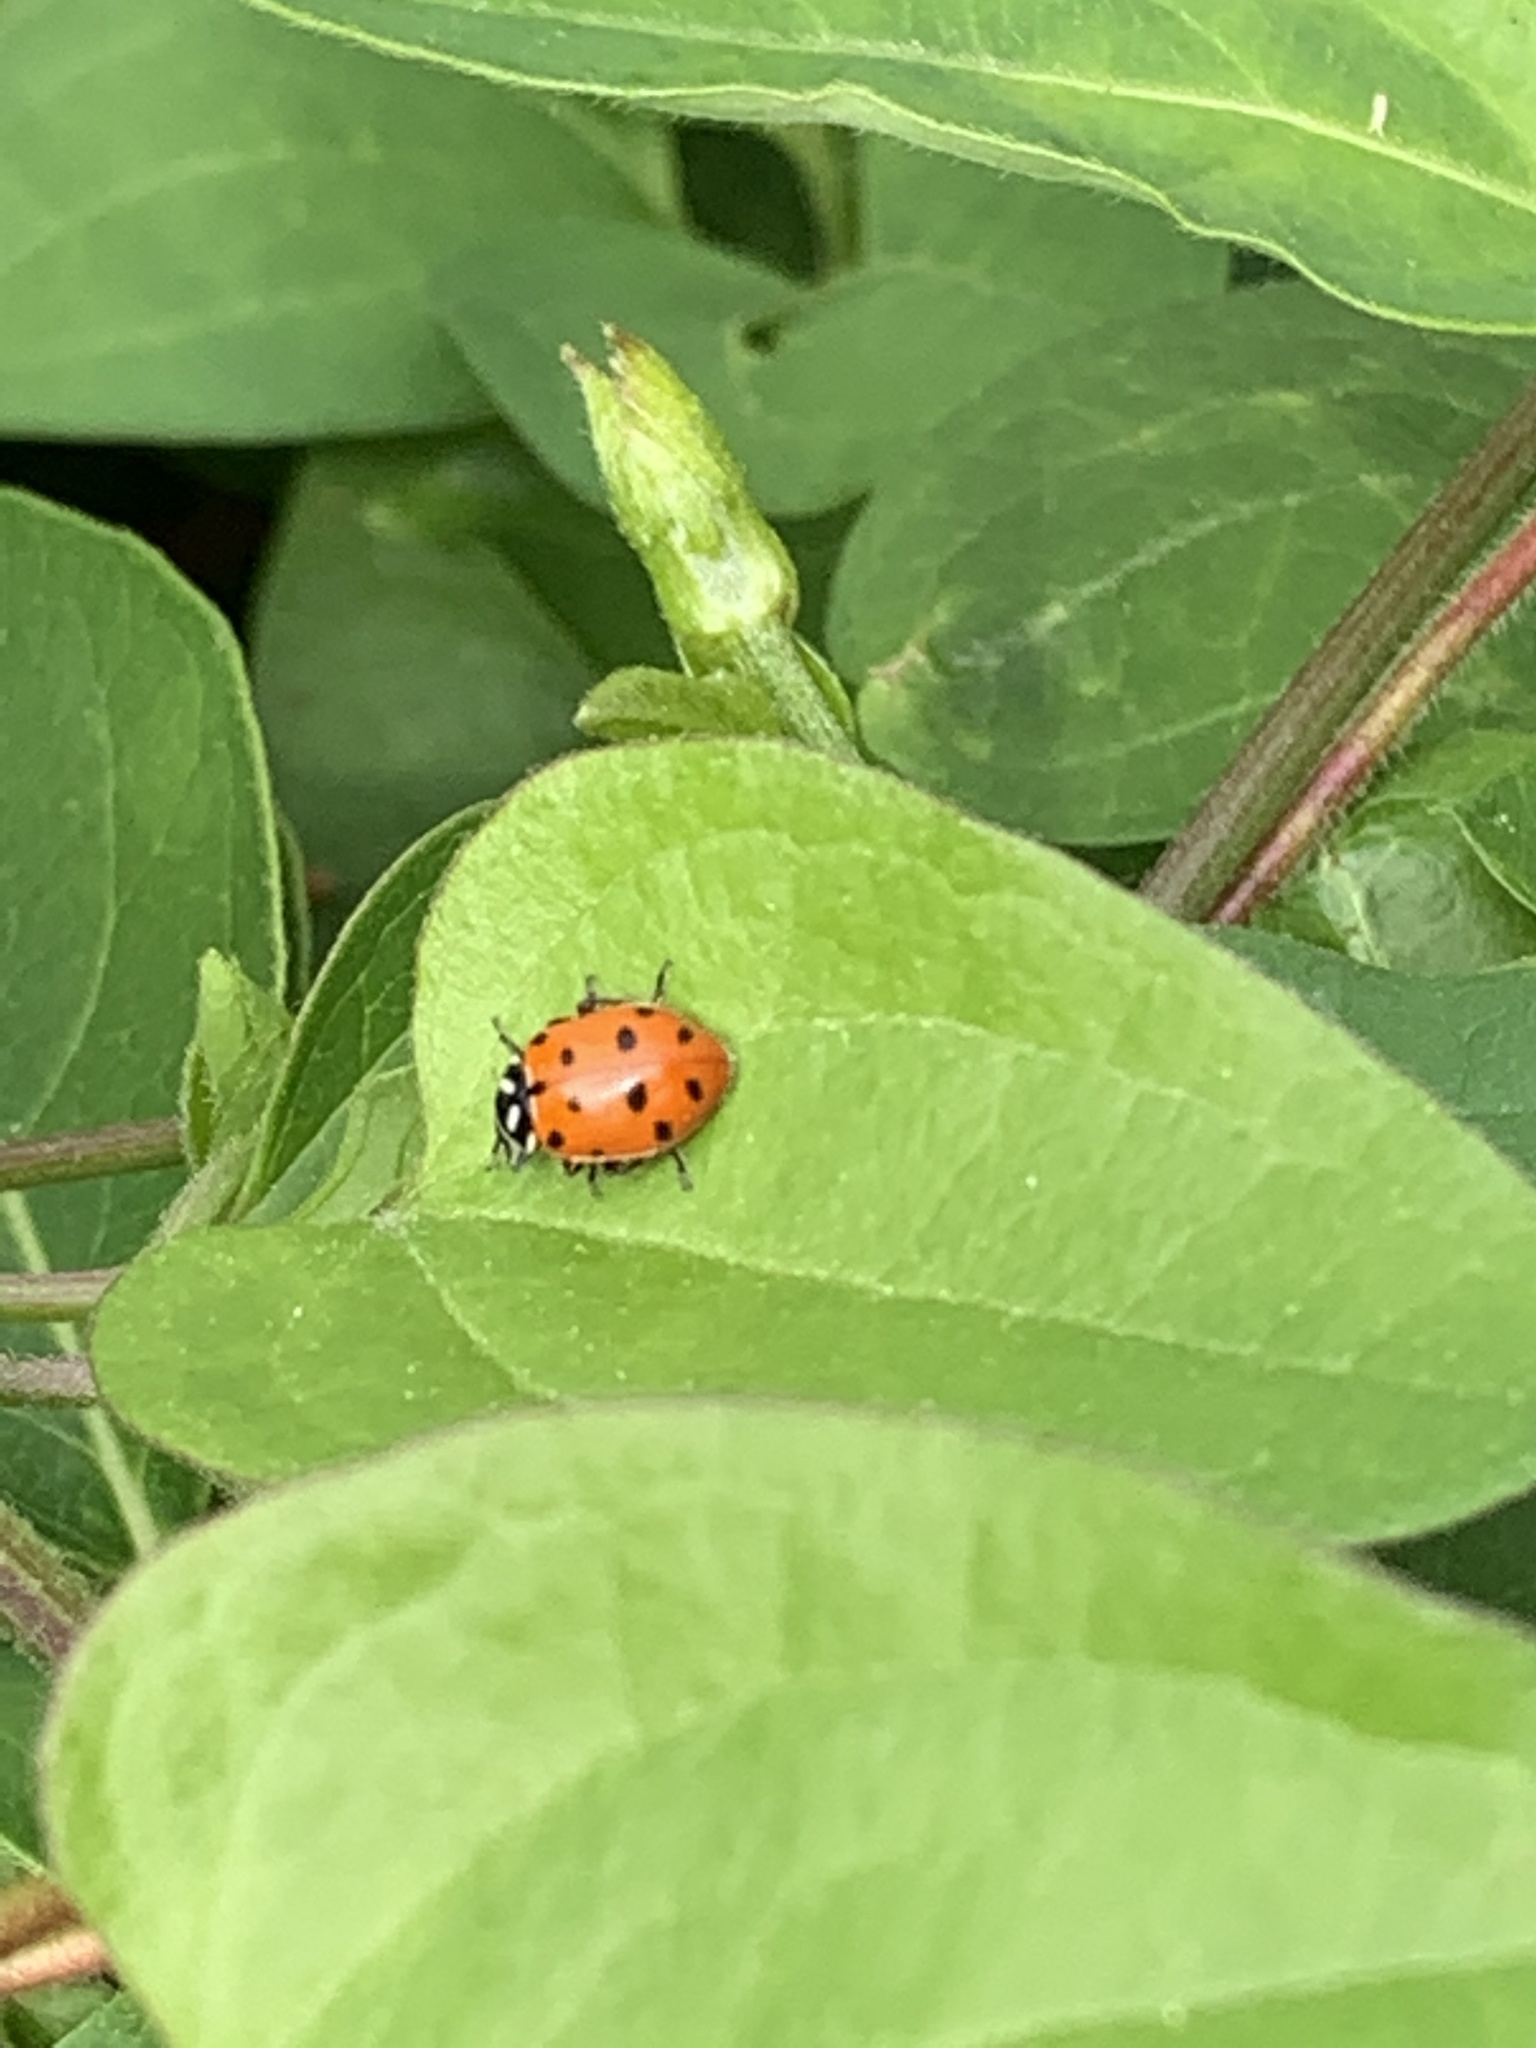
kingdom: Animalia
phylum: Arthropoda
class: Insecta
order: Coleoptera
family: Coccinellidae
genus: Hippodamia
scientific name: Hippodamia convergens
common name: Convergent lady beetle
